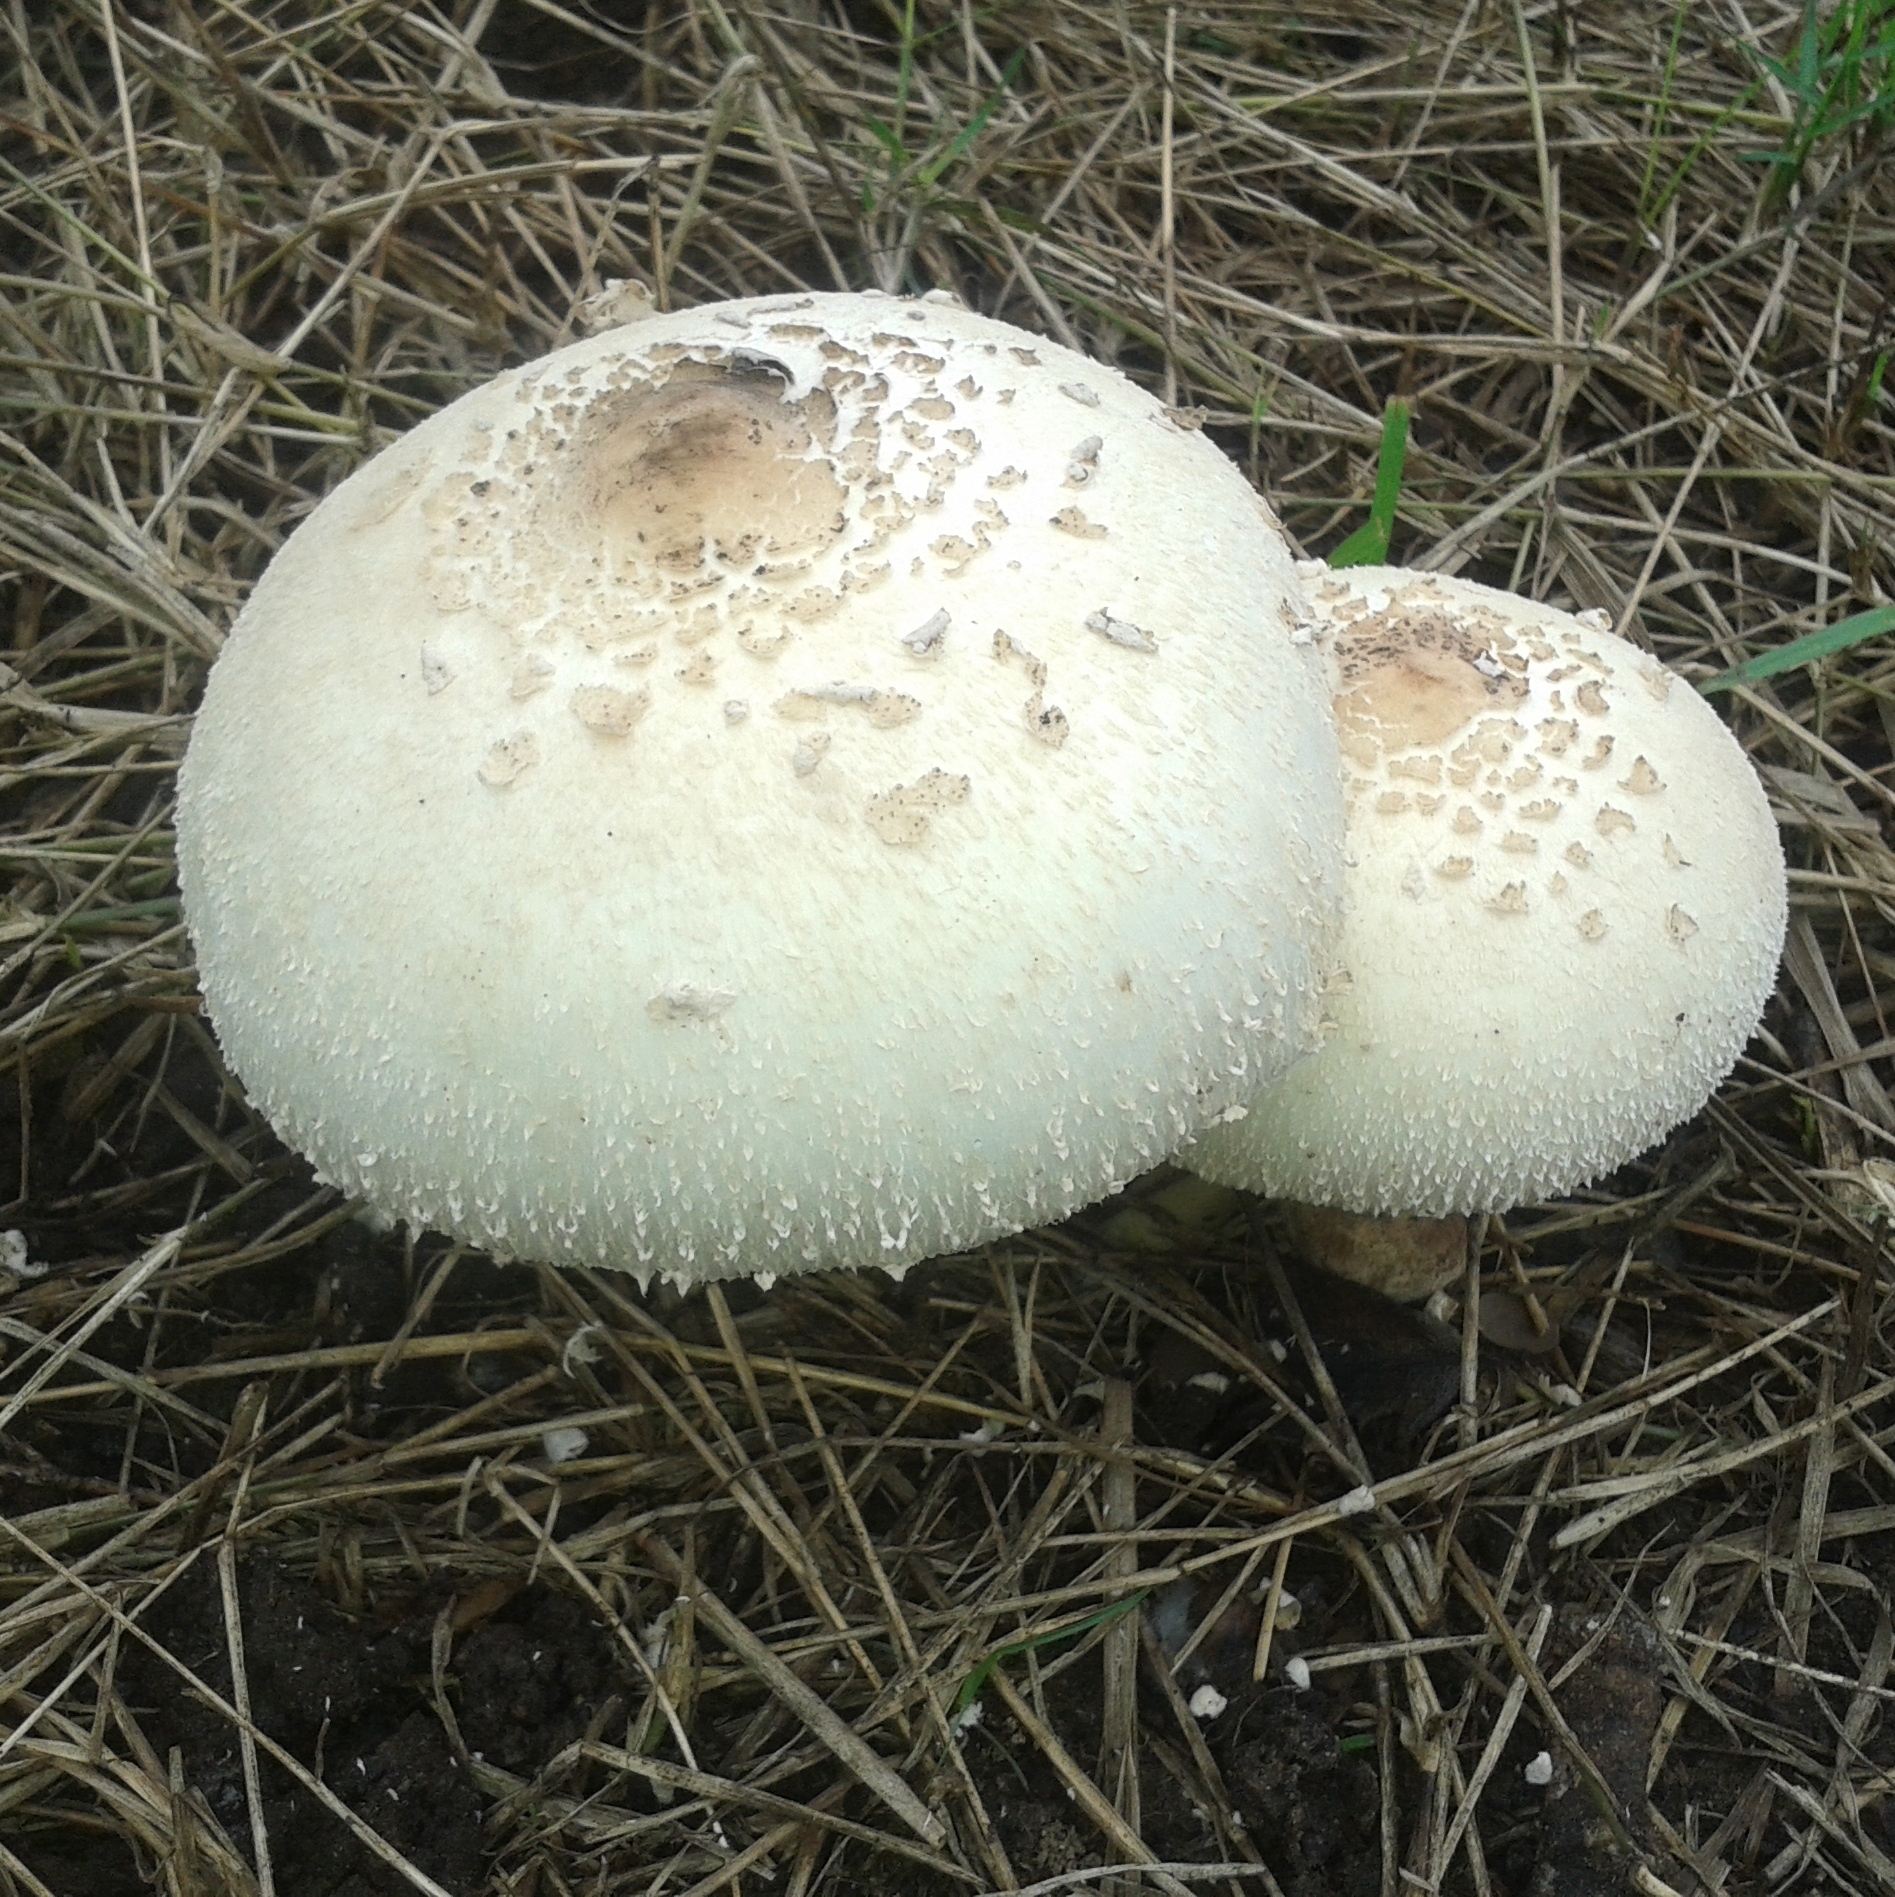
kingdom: Fungi
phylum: Basidiomycota
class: Agaricomycetes
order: Agaricales
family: Agaricaceae
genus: Chlorophyllum
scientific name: Chlorophyllum molybdites
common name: False parasol
